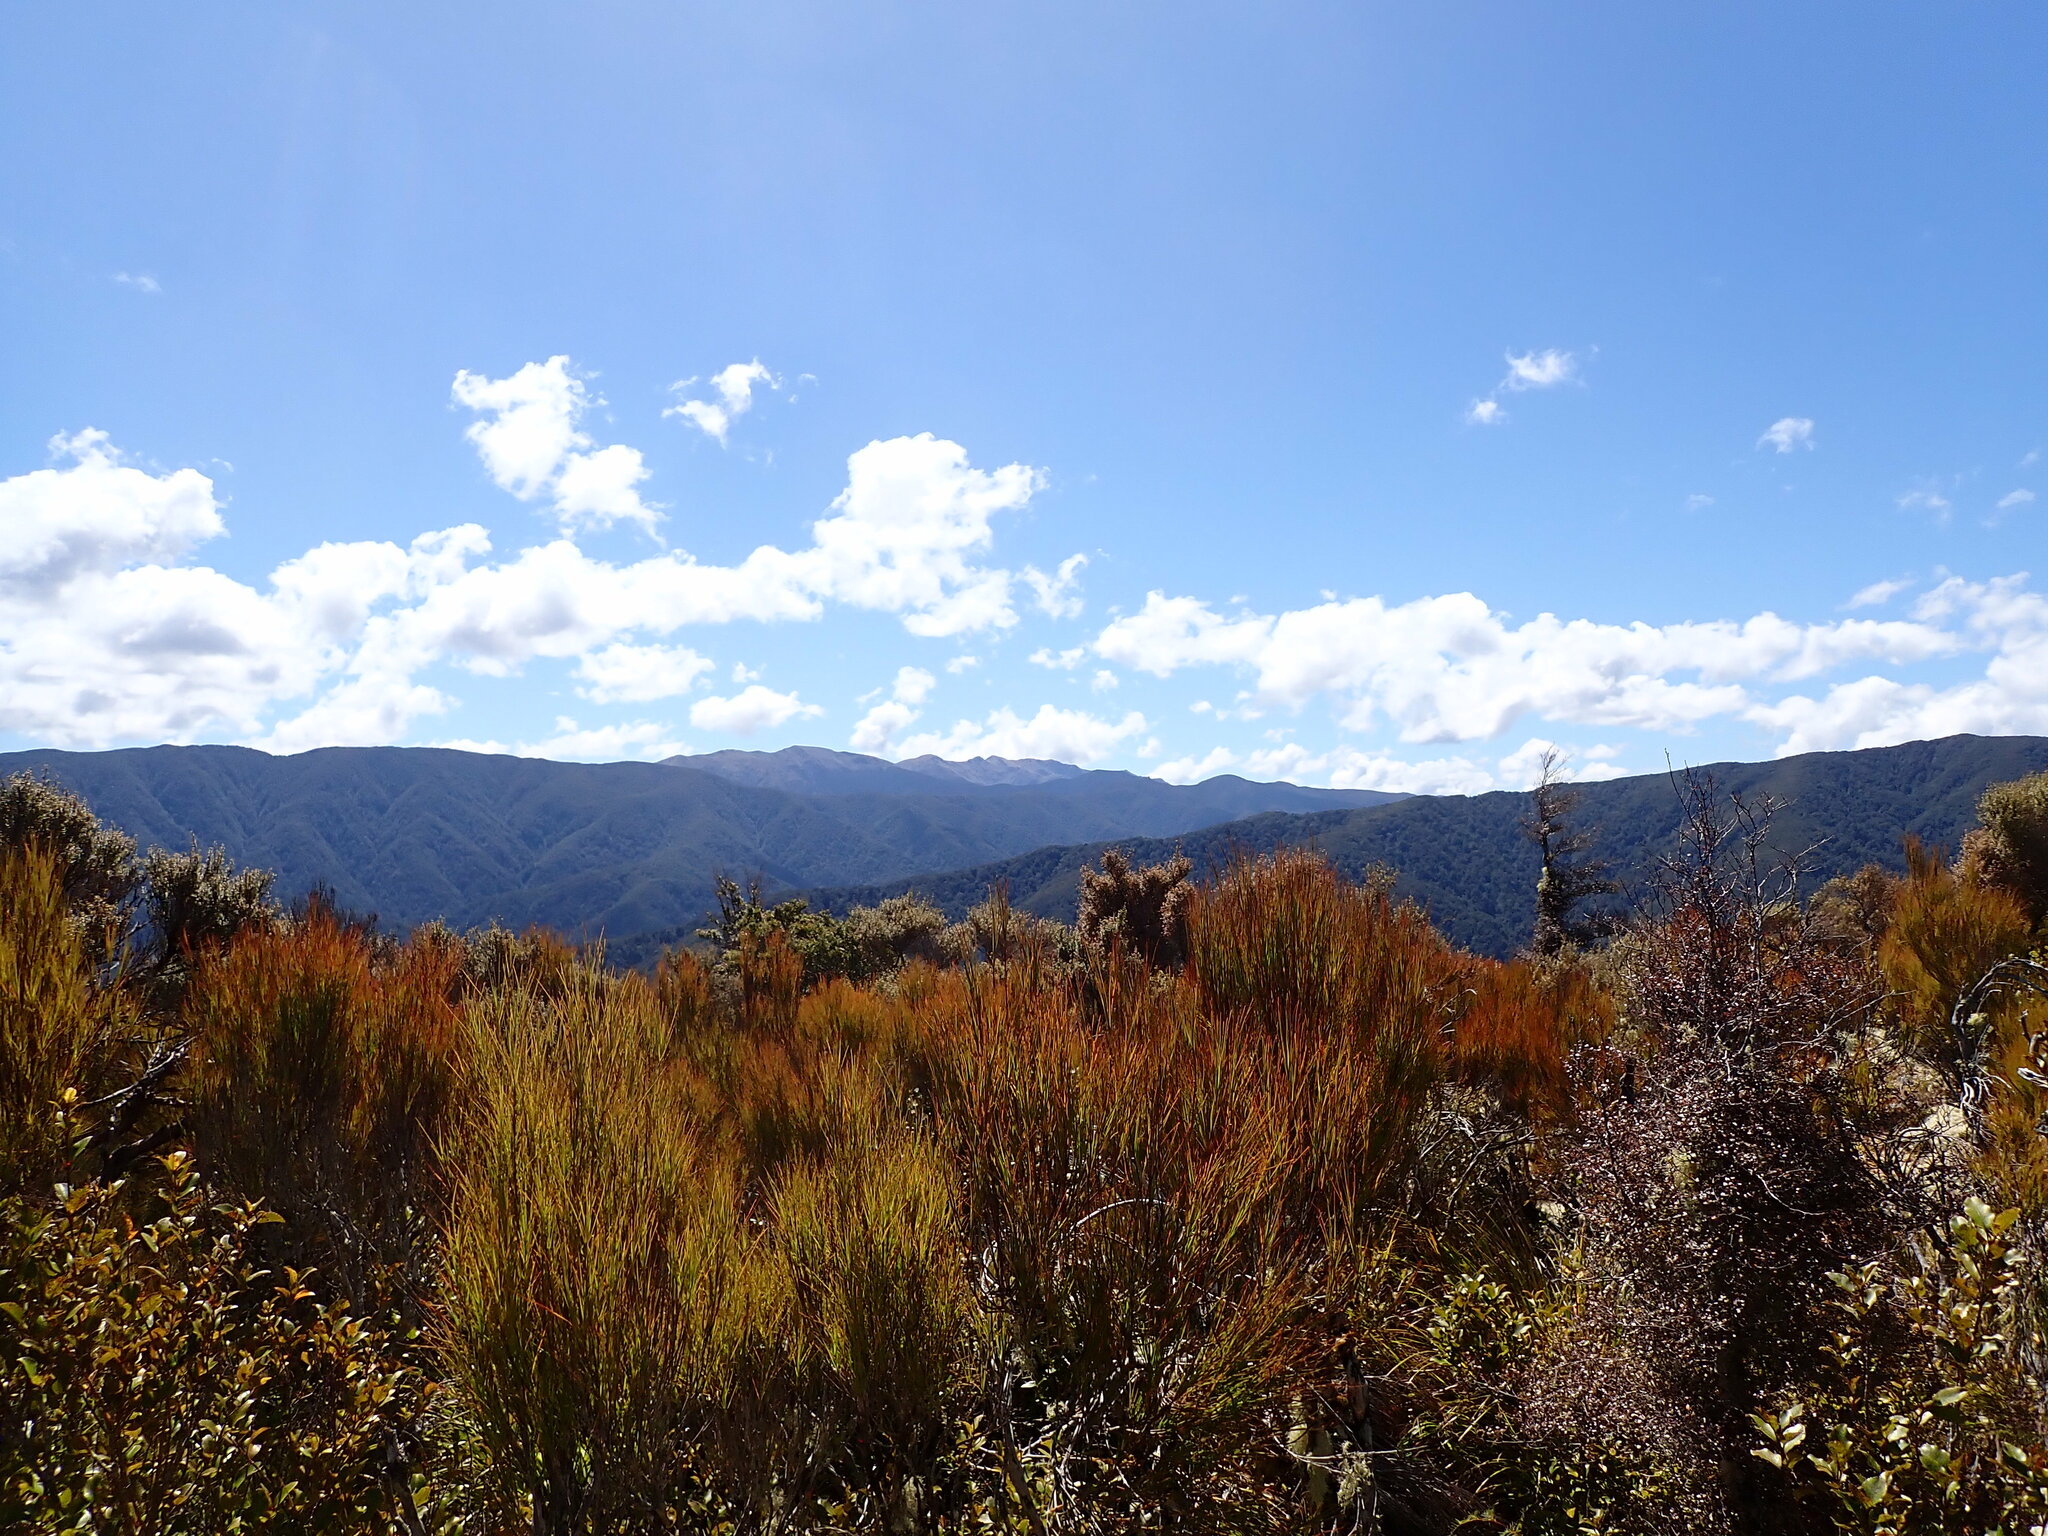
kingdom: Plantae
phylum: Tracheophyta
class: Magnoliopsida
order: Ericales
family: Ericaceae
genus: Dracophyllum
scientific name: Dracophyllum filifolium
